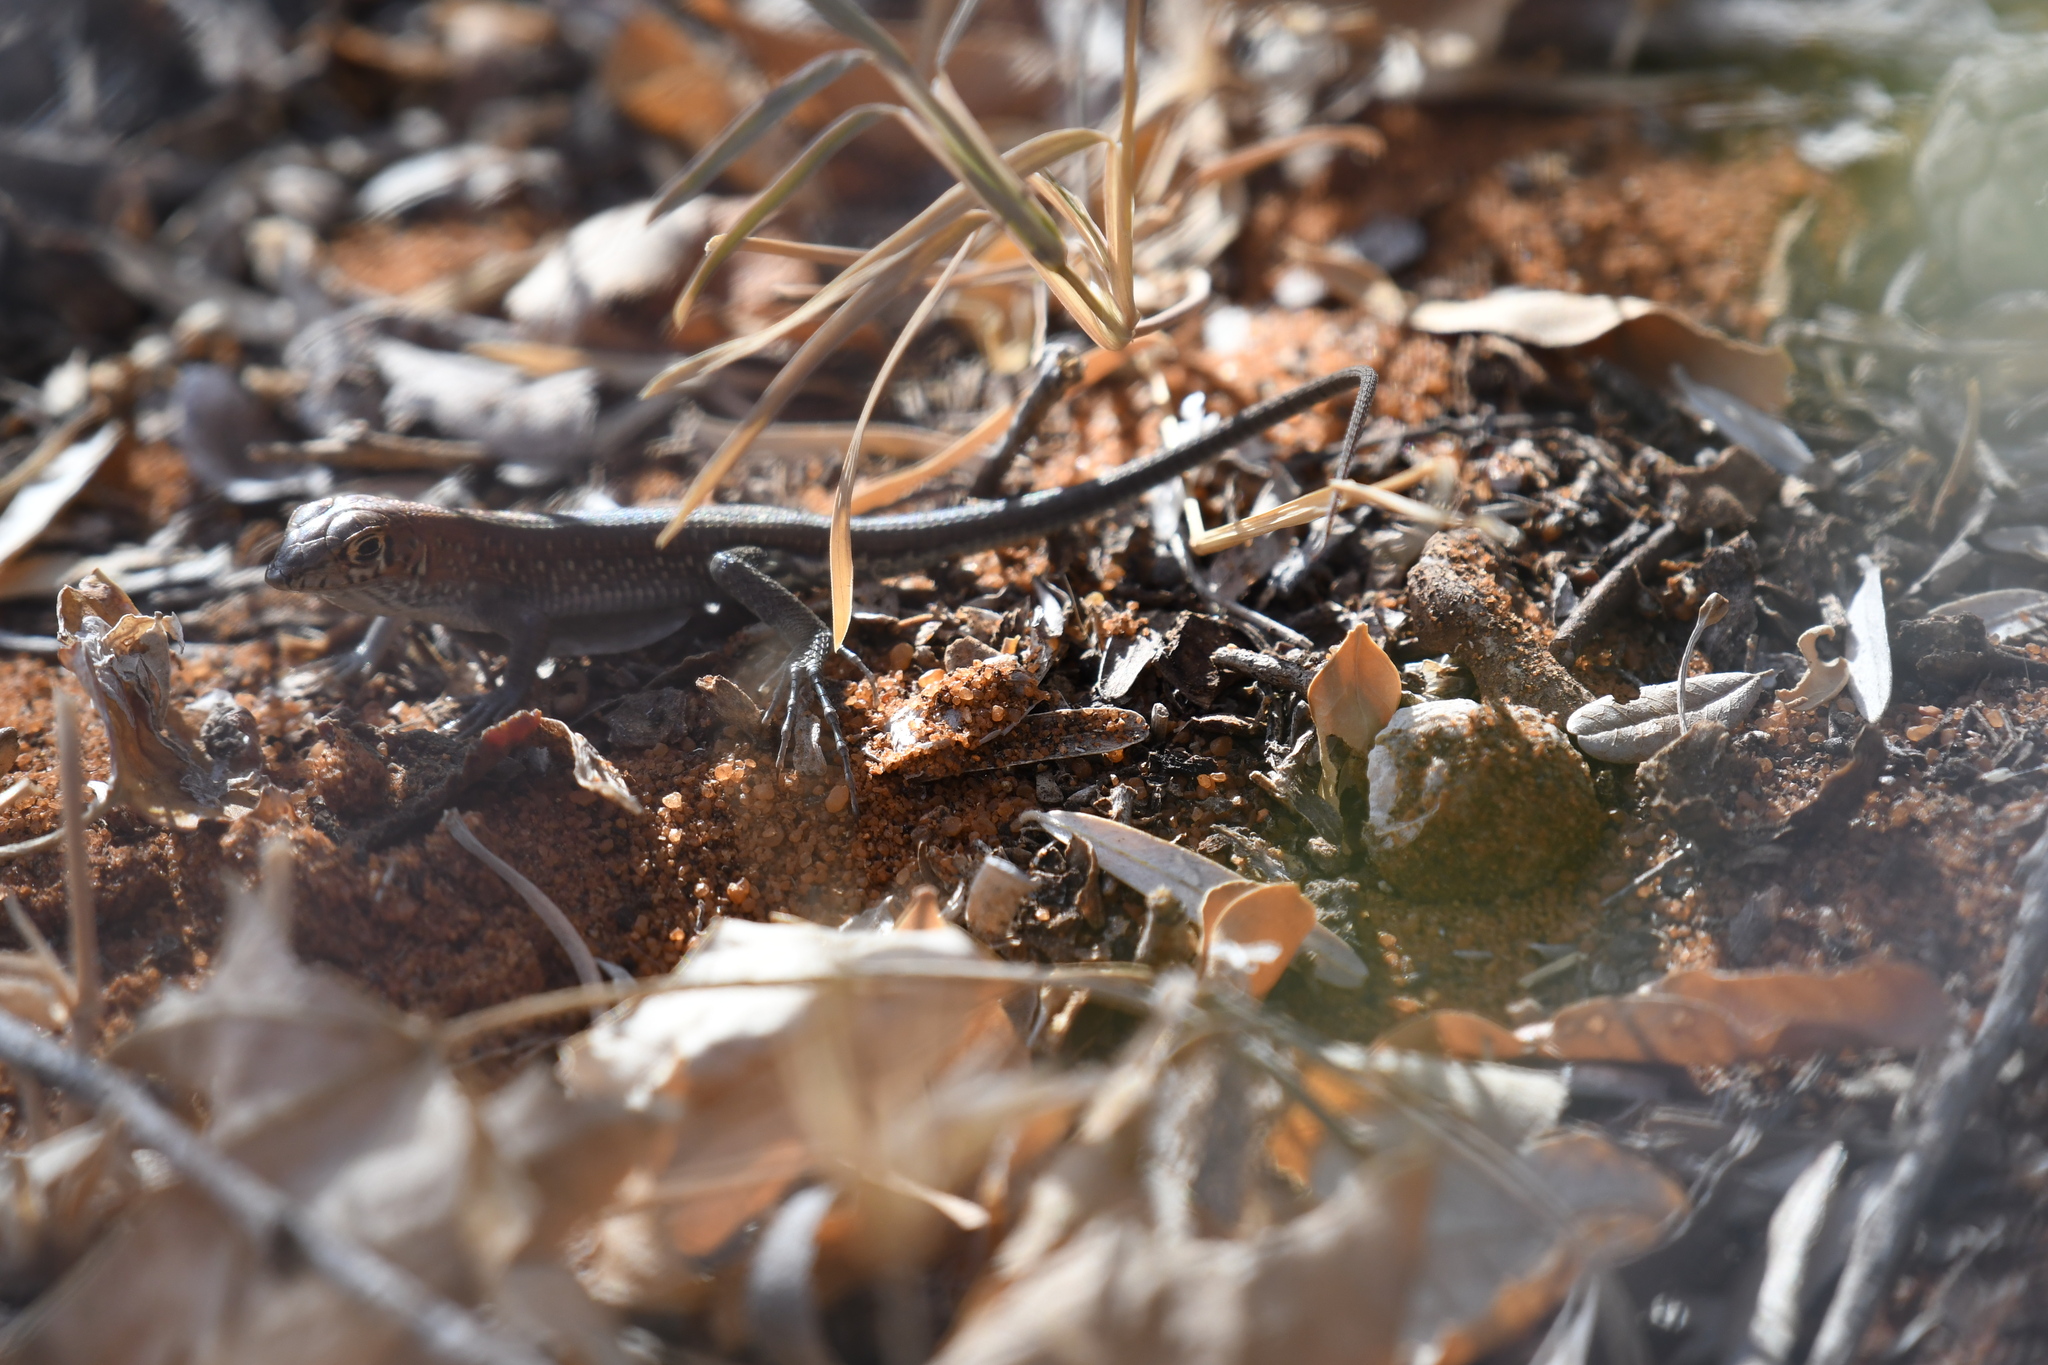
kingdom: Animalia
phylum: Chordata
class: Squamata
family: Gerrhosauridae
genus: Tracheloptychus
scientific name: Tracheloptychus madagascariensis
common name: Madagascar girdled lizard
